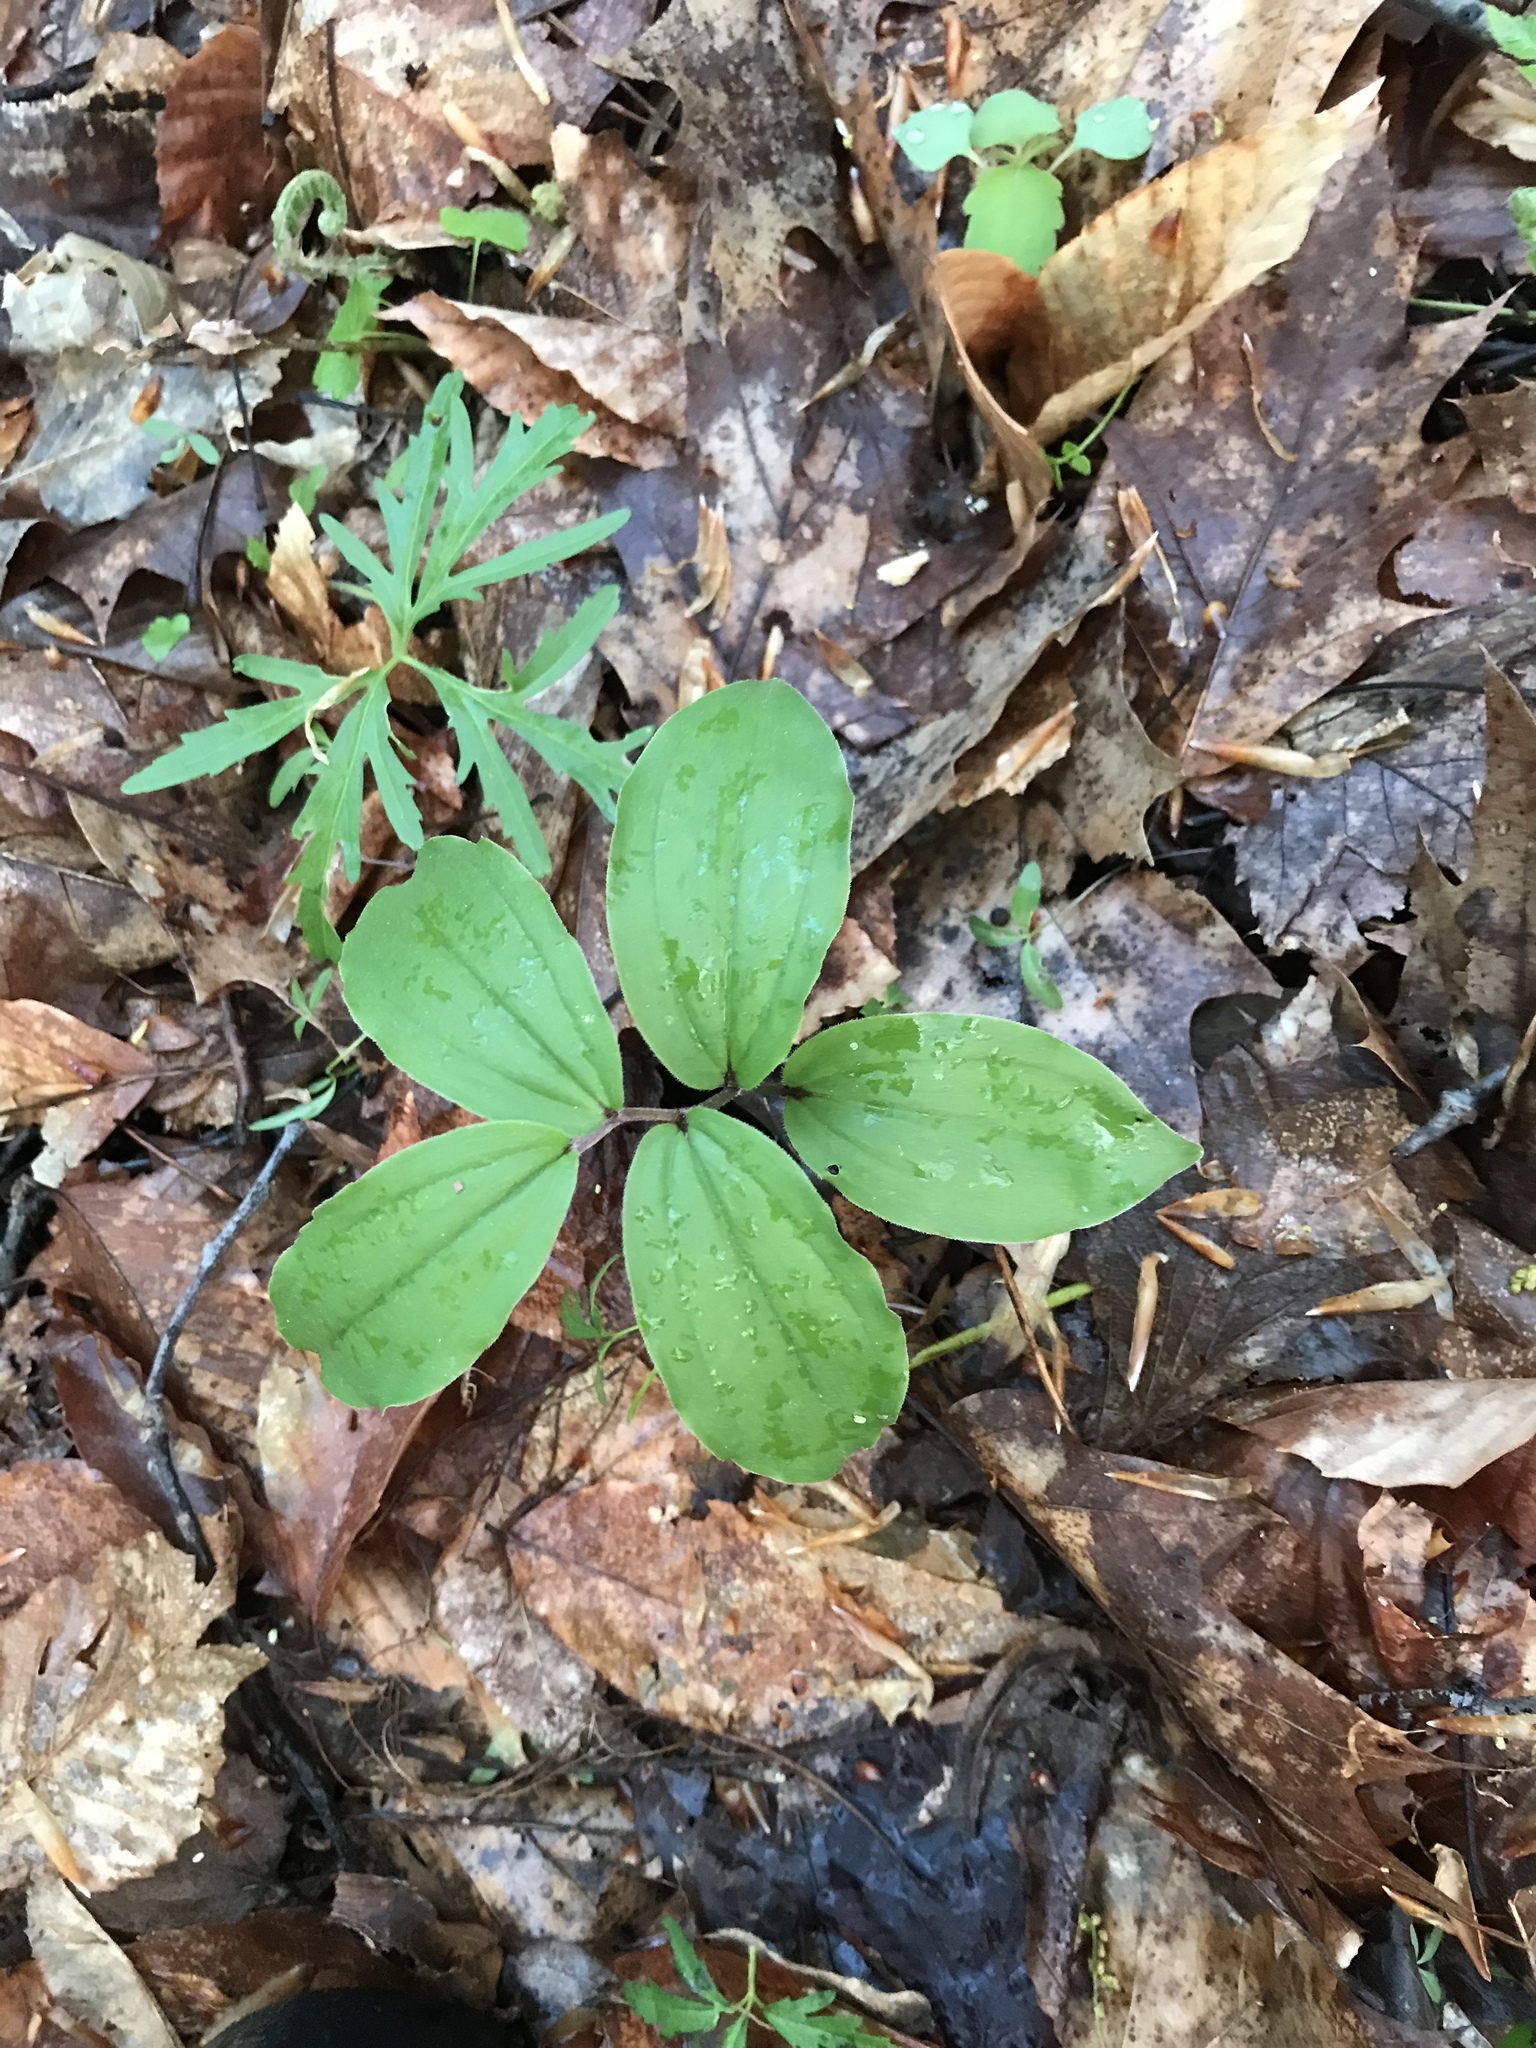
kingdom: Plantae
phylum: Tracheophyta
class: Liliopsida
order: Asparagales
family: Asparagaceae
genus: Maianthemum
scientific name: Maianthemum racemosum
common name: False spikenard
